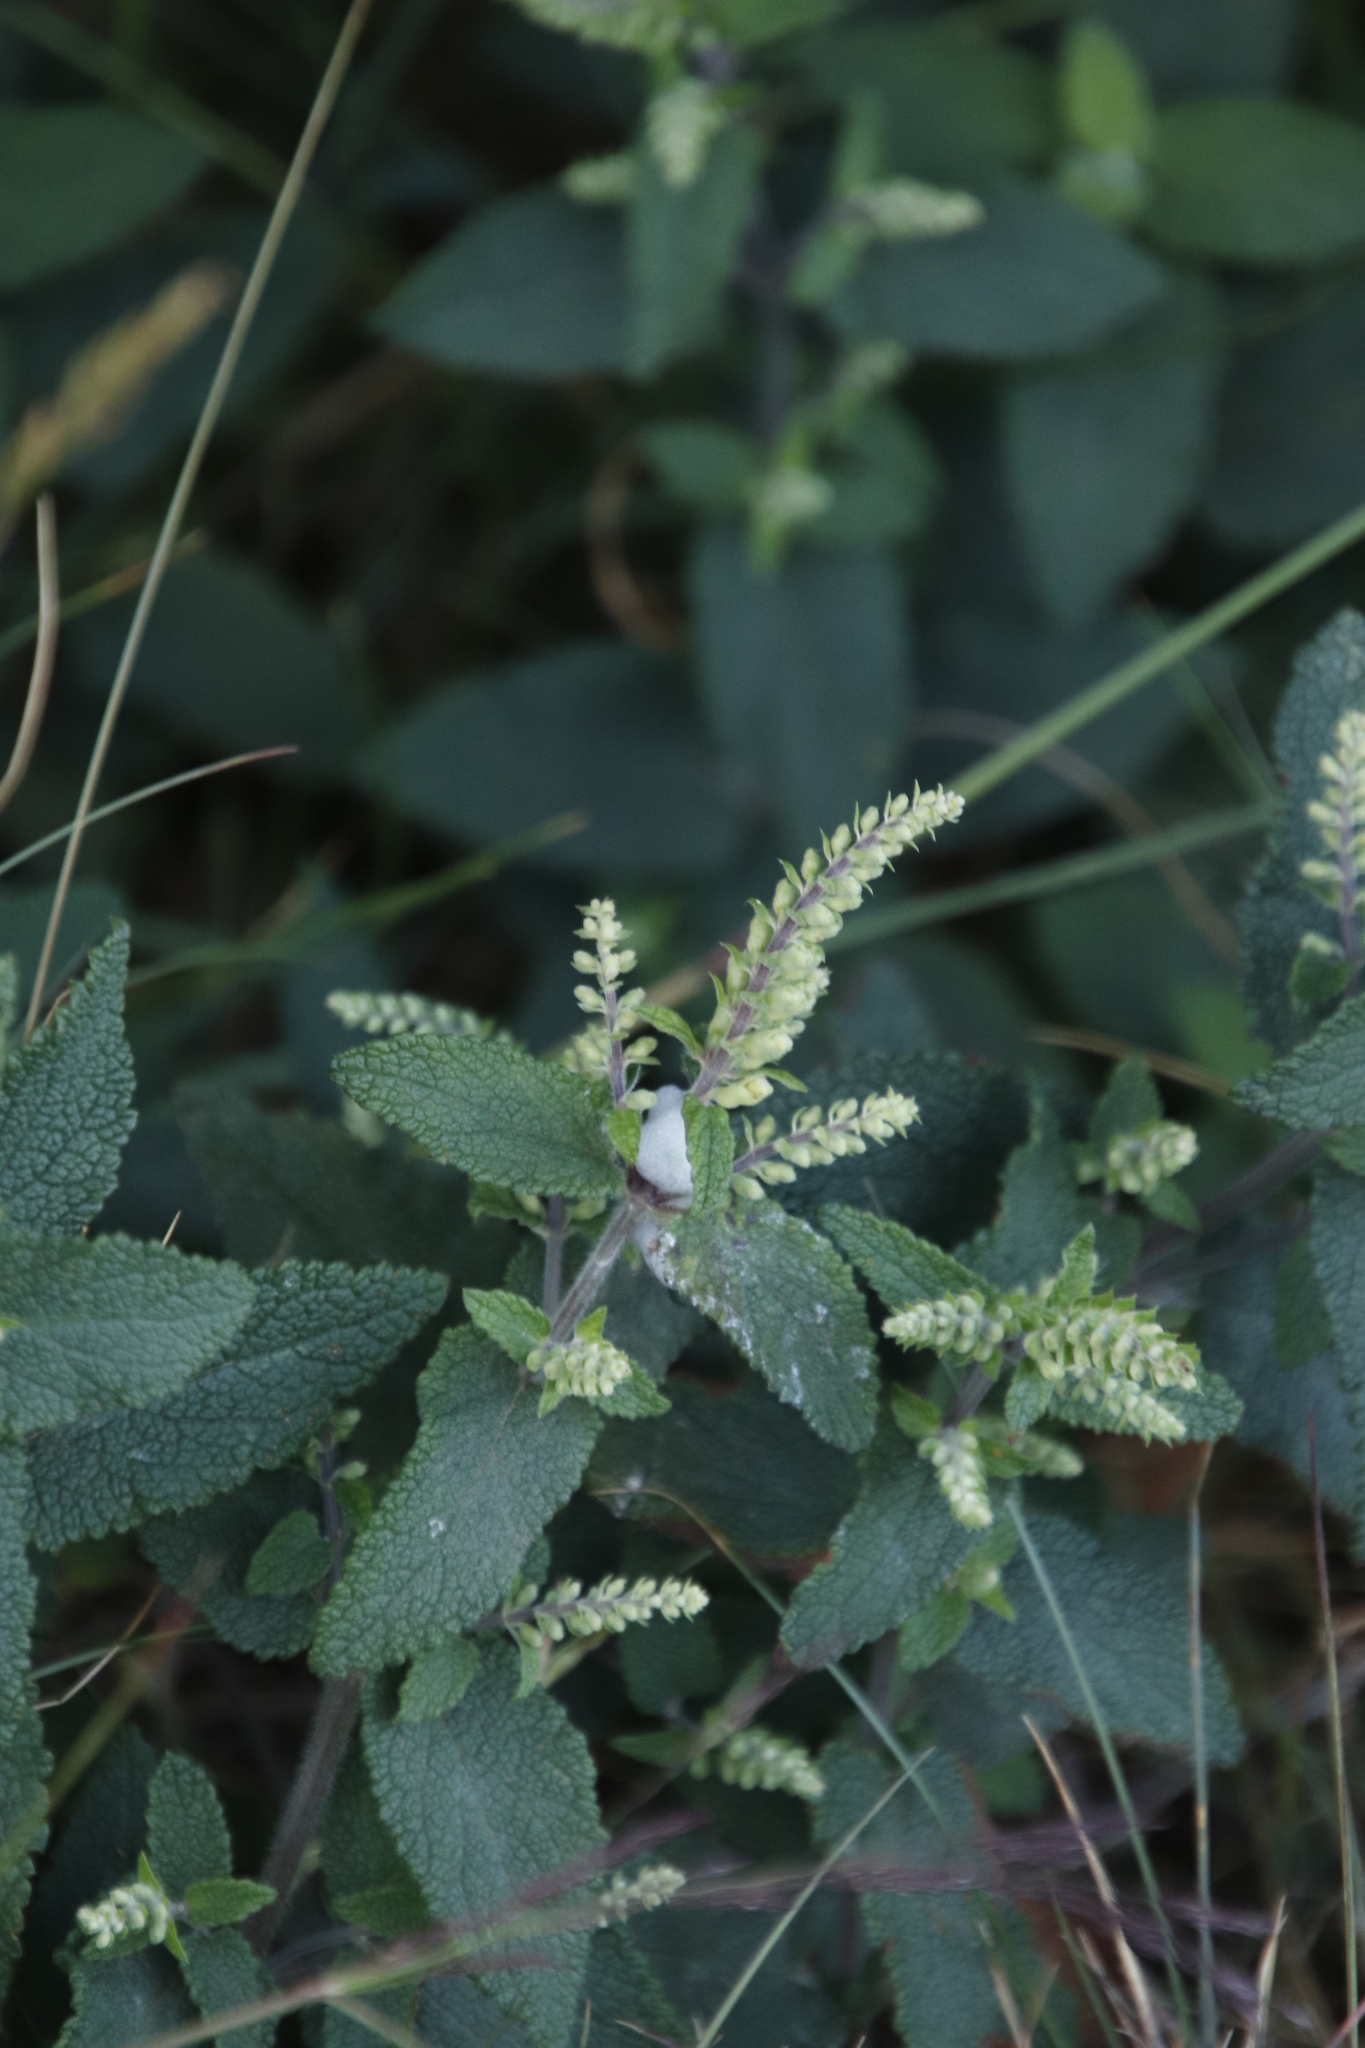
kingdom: Plantae
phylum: Tracheophyta
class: Magnoliopsida
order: Lamiales
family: Lamiaceae
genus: Teucrium
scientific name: Teucrium scorodonia
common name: Woodland germander
